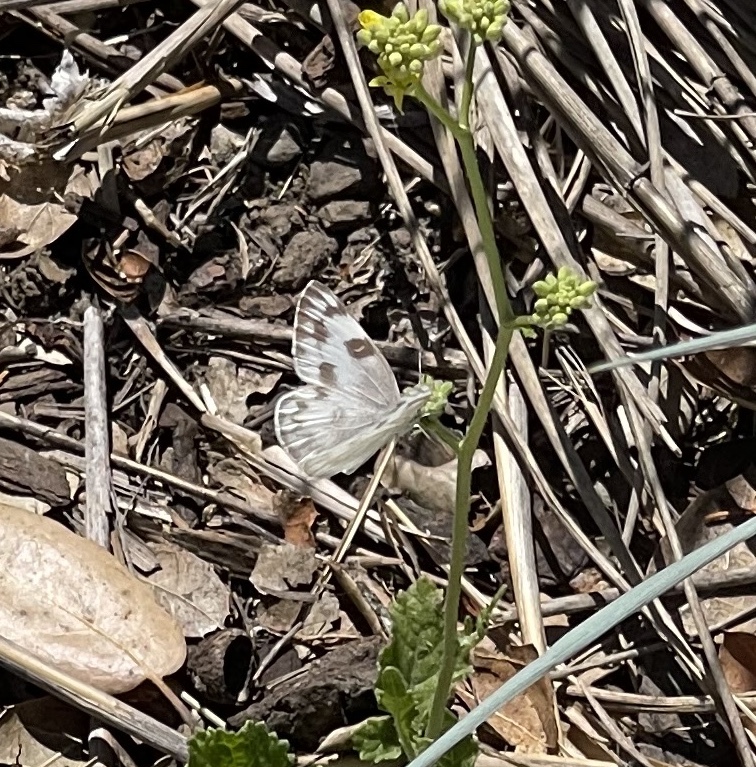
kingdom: Animalia
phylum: Arthropoda
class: Insecta
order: Lepidoptera
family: Pieridae
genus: Pontia
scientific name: Pontia protodice
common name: Checkered white
